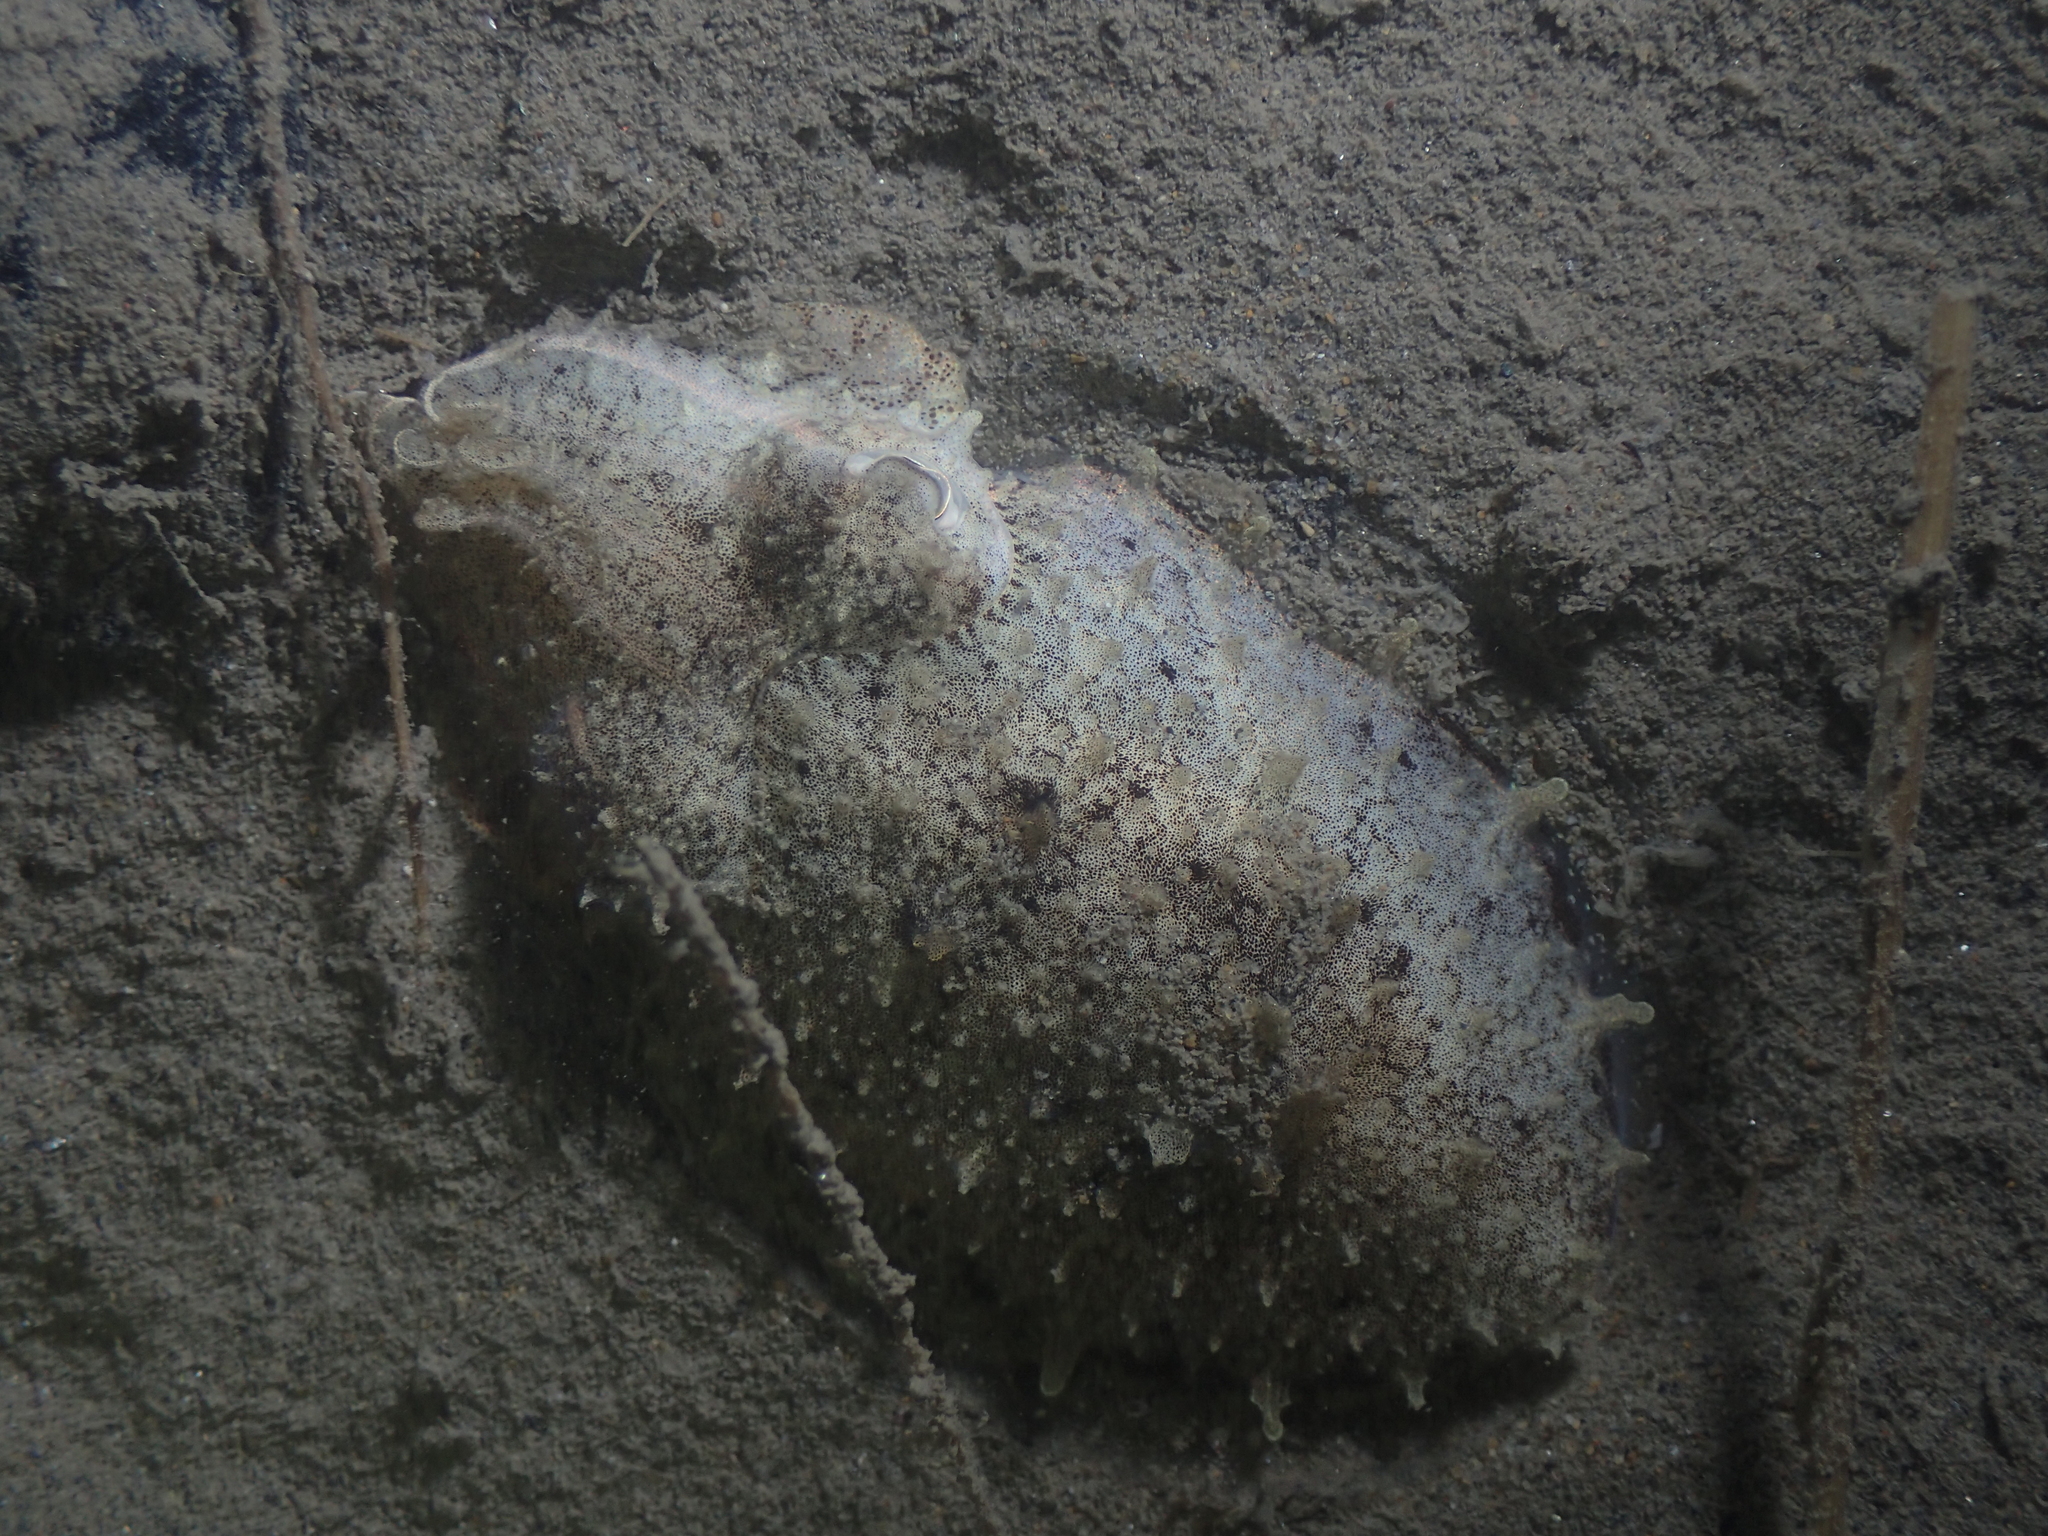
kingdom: Animalia
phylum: Mollusca
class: Cephalopoda
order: Sepiida
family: Sepiidae
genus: Sepia
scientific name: Sepia officinalis
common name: Common cuttlefish
